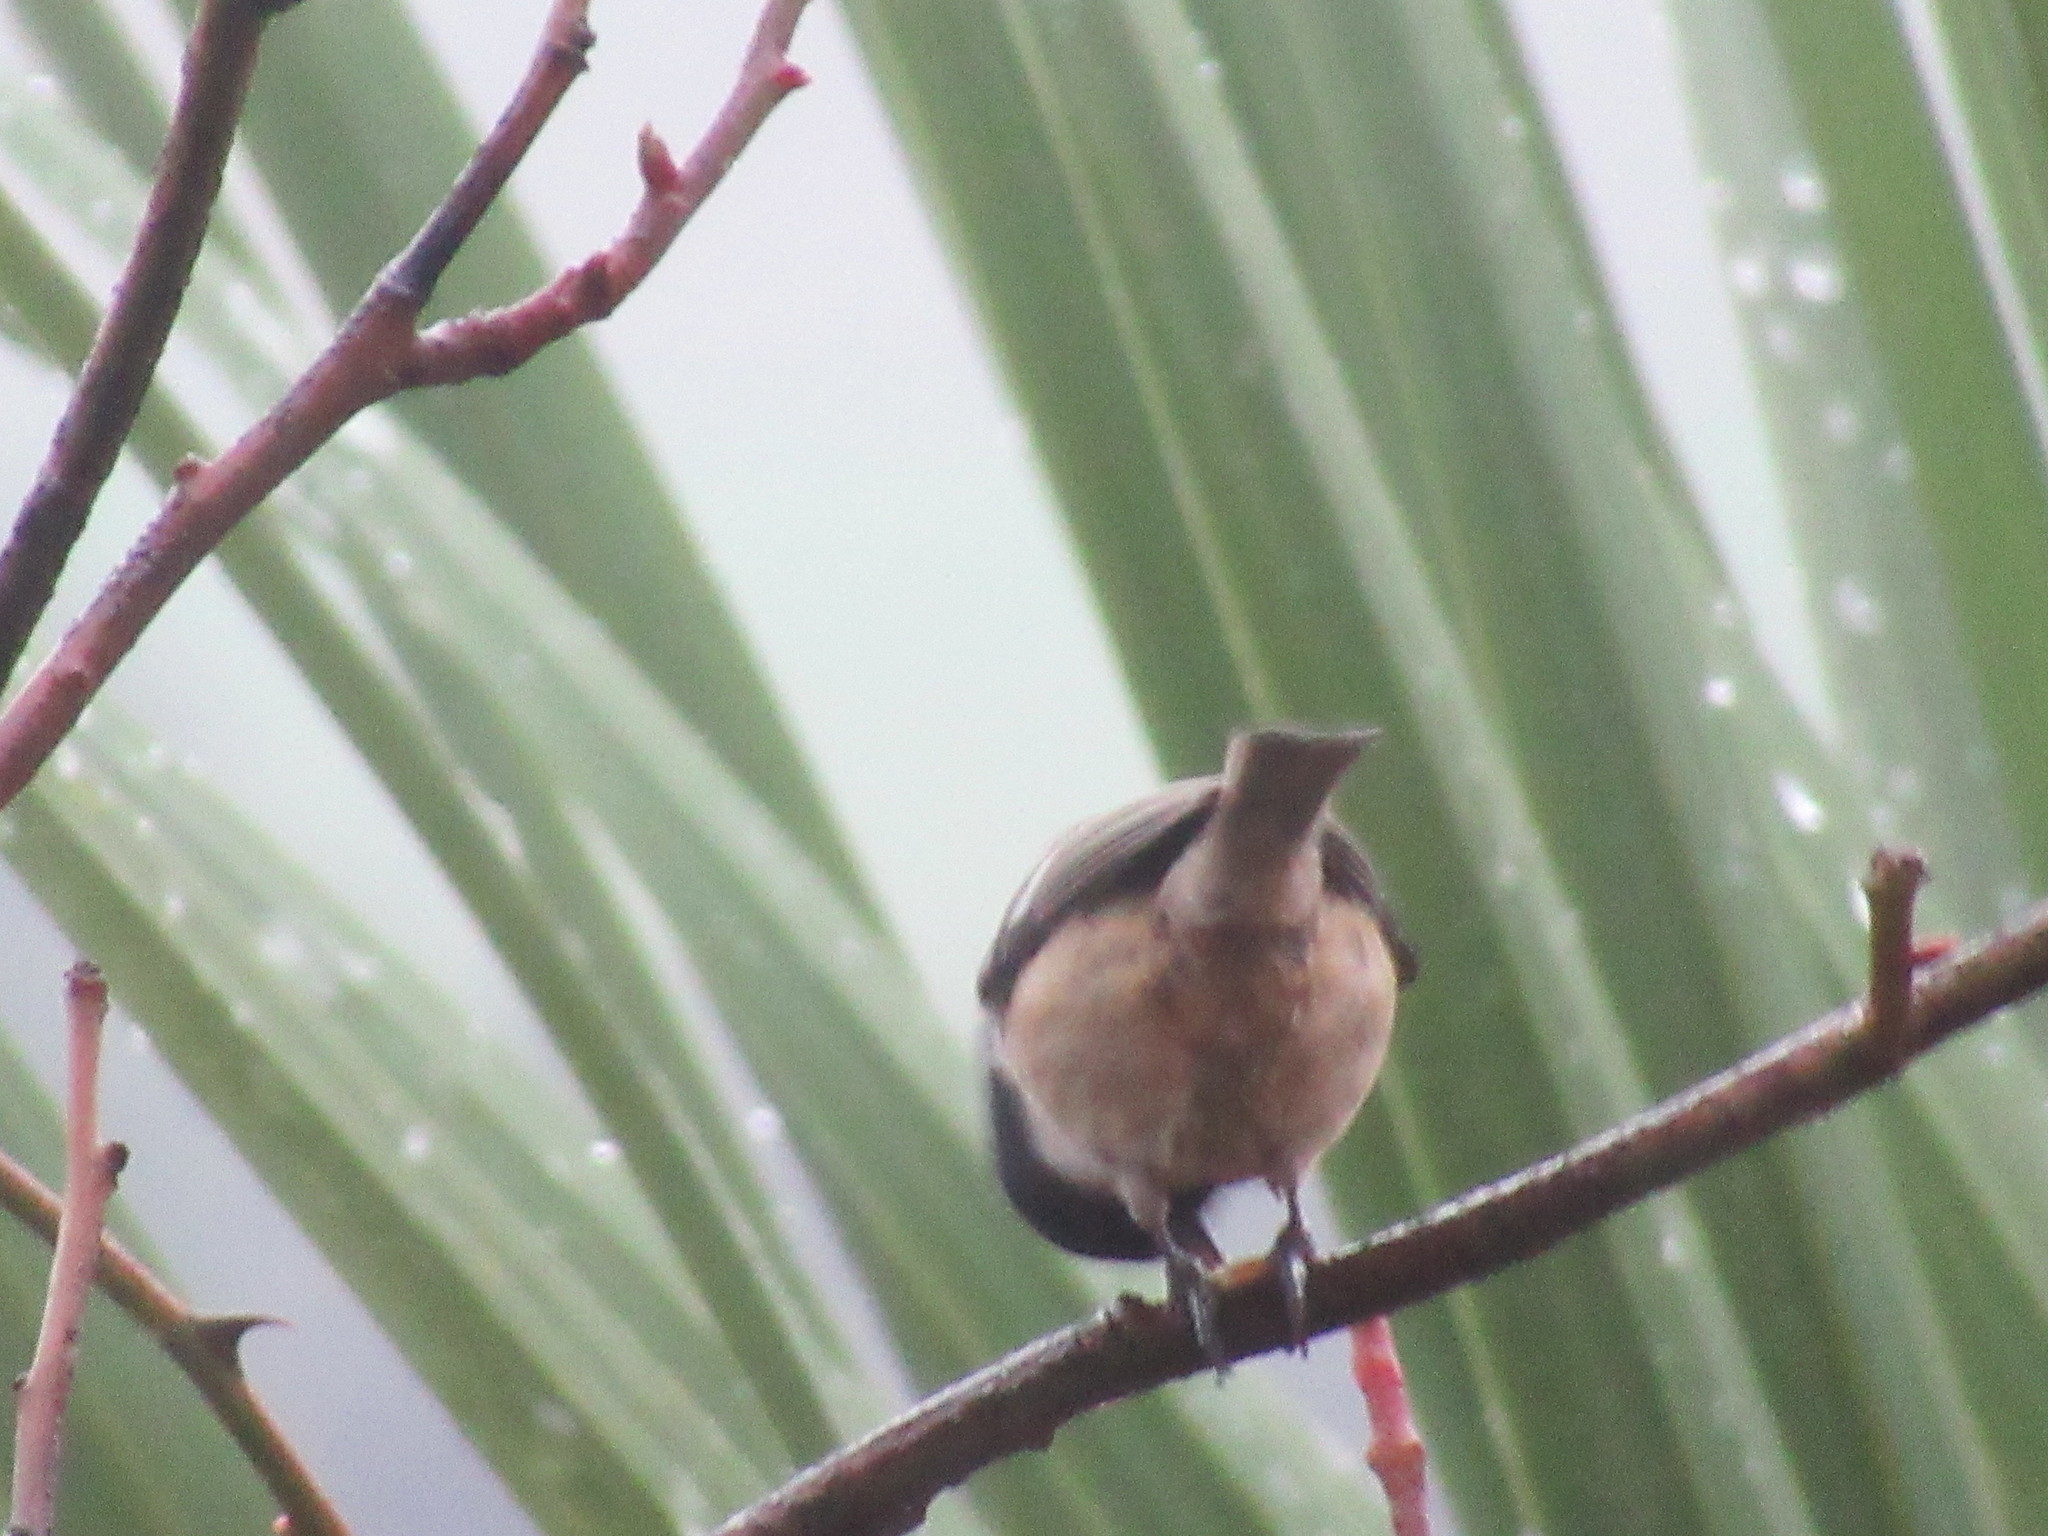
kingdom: Animalia
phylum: Chordata
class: Aves
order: Passeriformes
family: Paridae
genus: Periparus
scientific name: Periparus ater
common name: Coal tit
